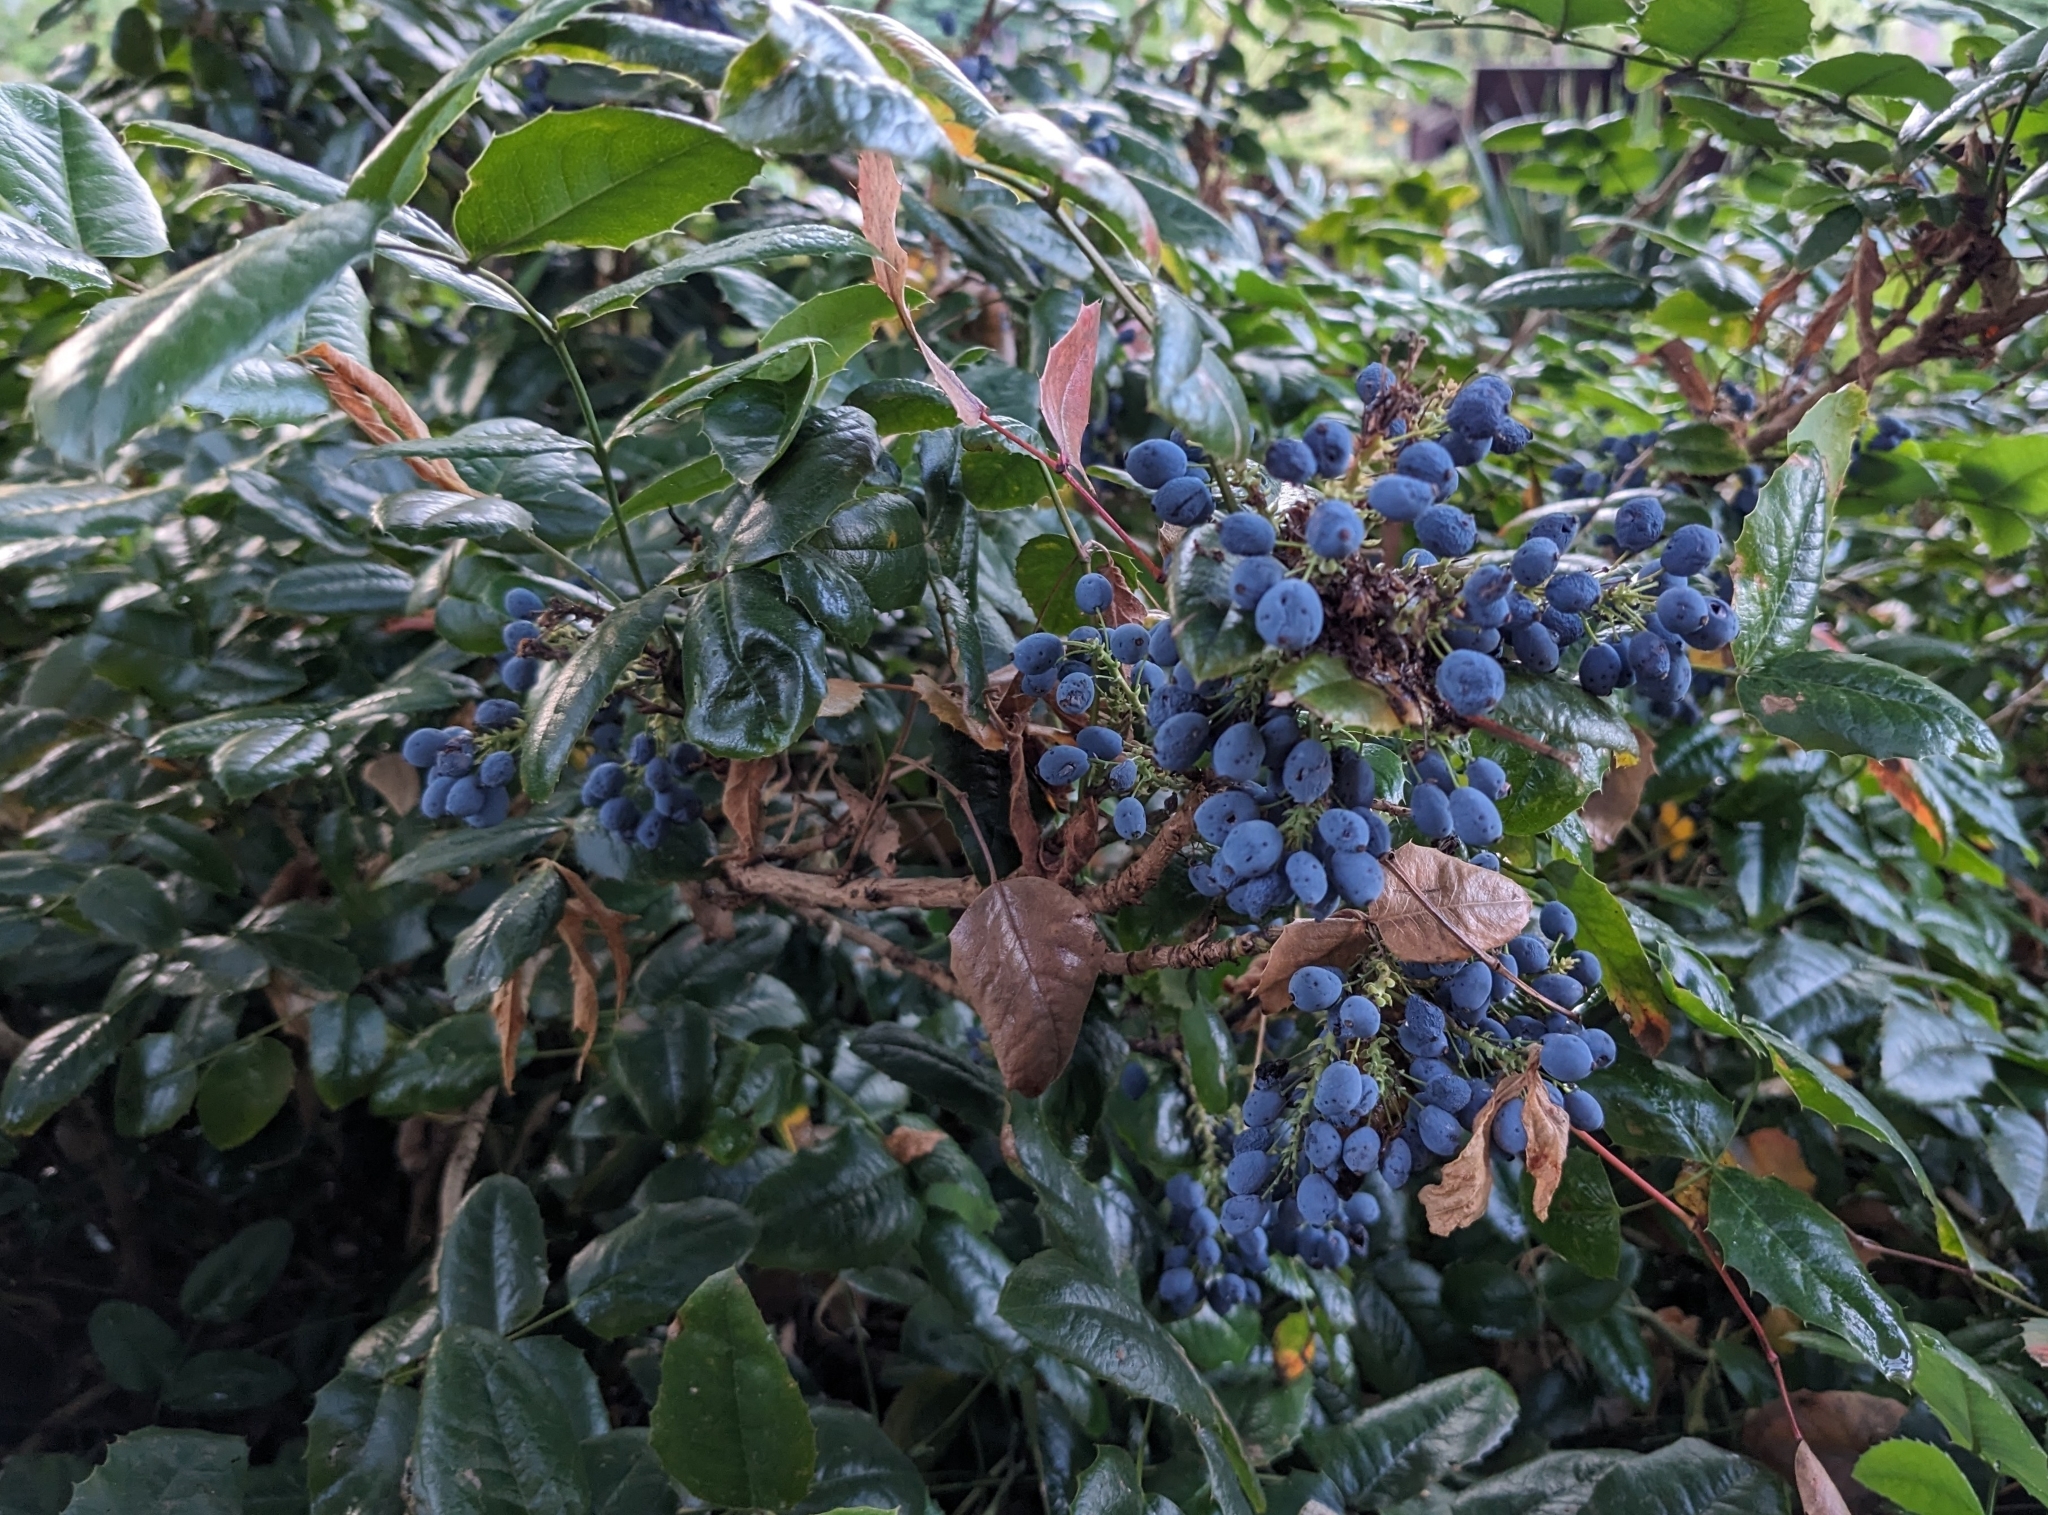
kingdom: Plantae
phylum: Tracheophyta
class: Magnoliopsida
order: Ranunculales
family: Berberidaceae
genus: Mahonia
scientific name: Mahonia aquifolium
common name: Oregon-grape
